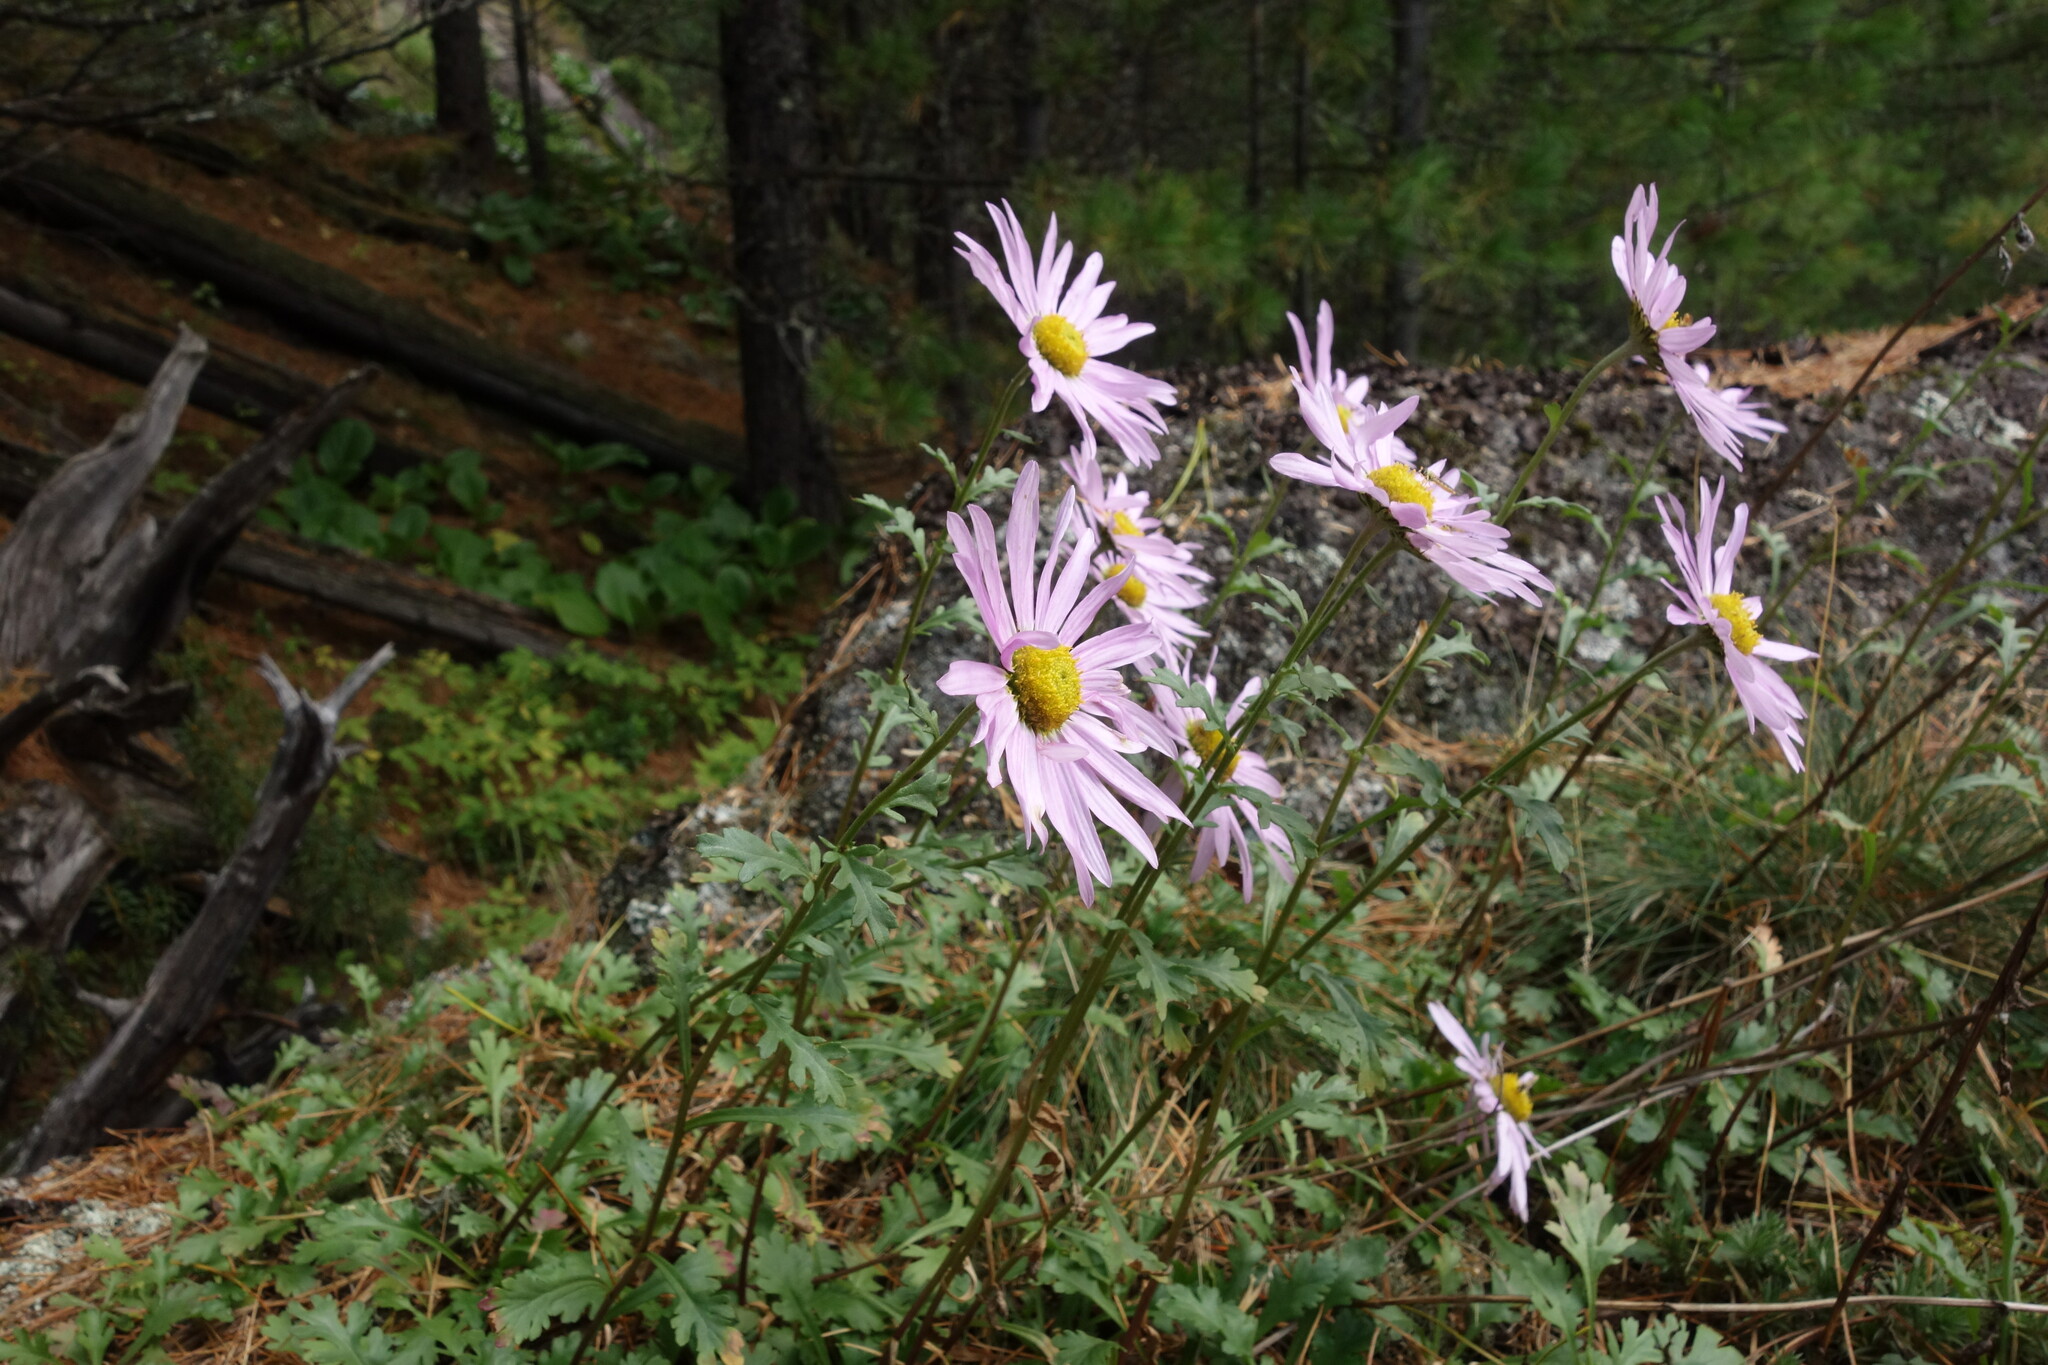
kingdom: Plantae
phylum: Tracheophyta
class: Magnoliopsida
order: Asterales
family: Asteraceae
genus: Chrysanthemum
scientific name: Chrysanthemum zawadzkii
